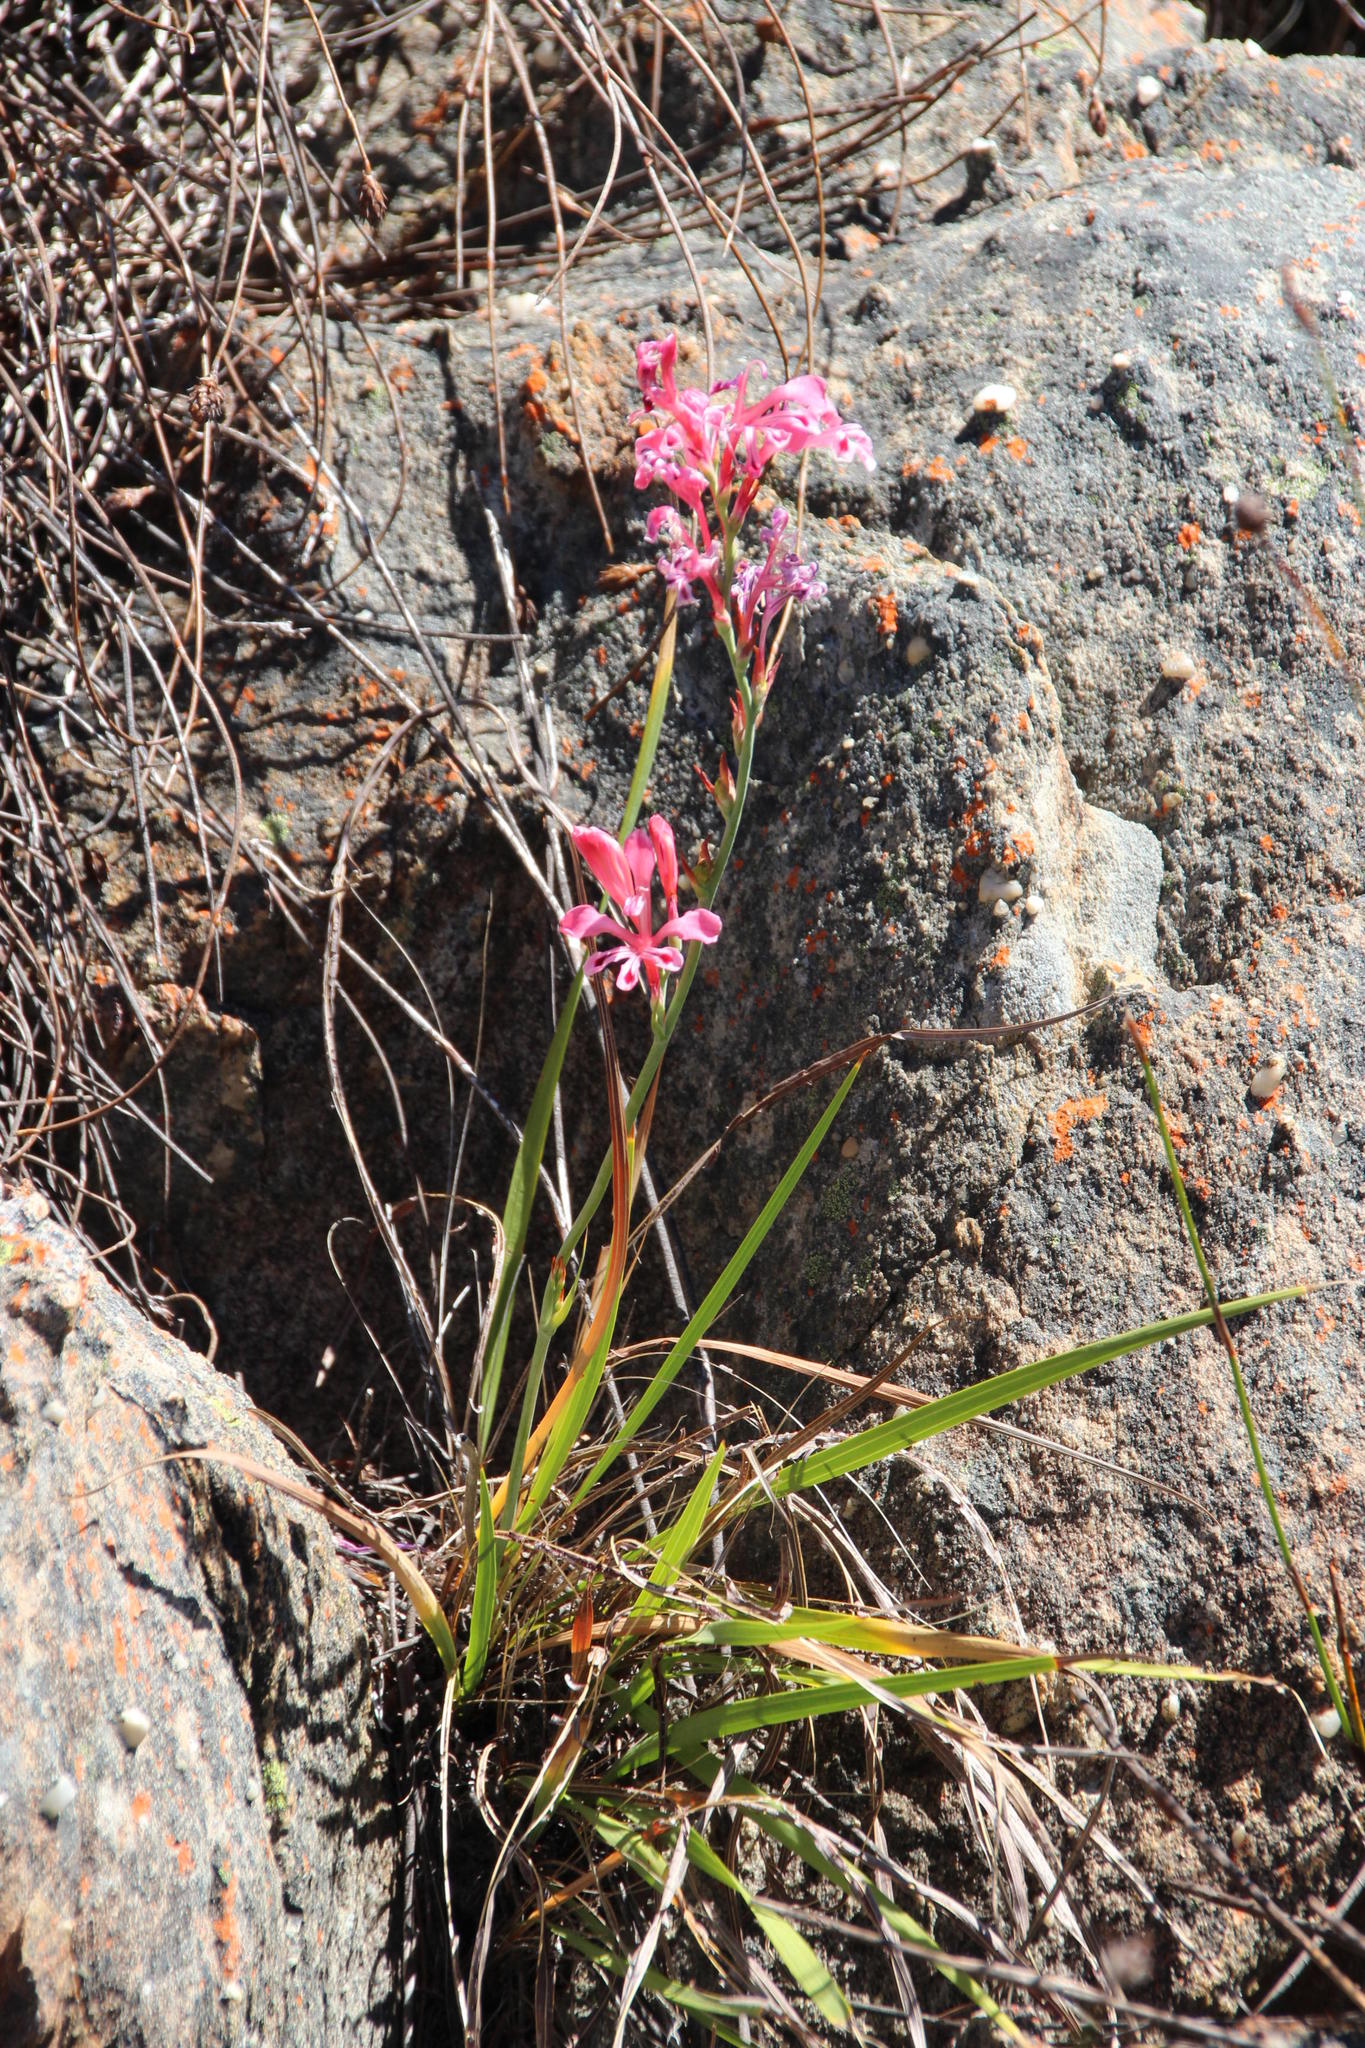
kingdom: Plantae
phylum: Tracheophyta
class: Liliopsida
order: Asparagales
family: Iridaceae
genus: Tritoniopsis
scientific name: Tritoniopsis lata
